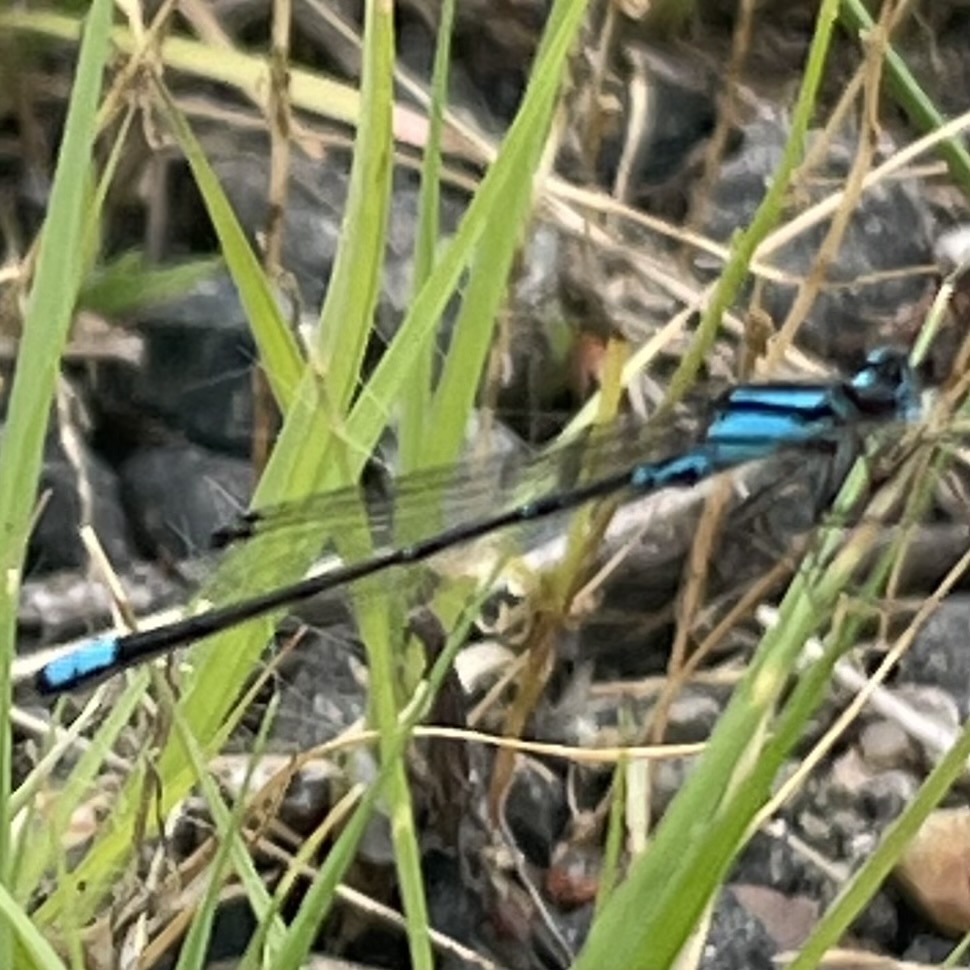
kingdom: Animalia
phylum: Arthropoda
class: Insecta
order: Odonata
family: Coenagrionidae
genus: Enallagma
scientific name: Enallagma geminatum
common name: Skimming bluet
